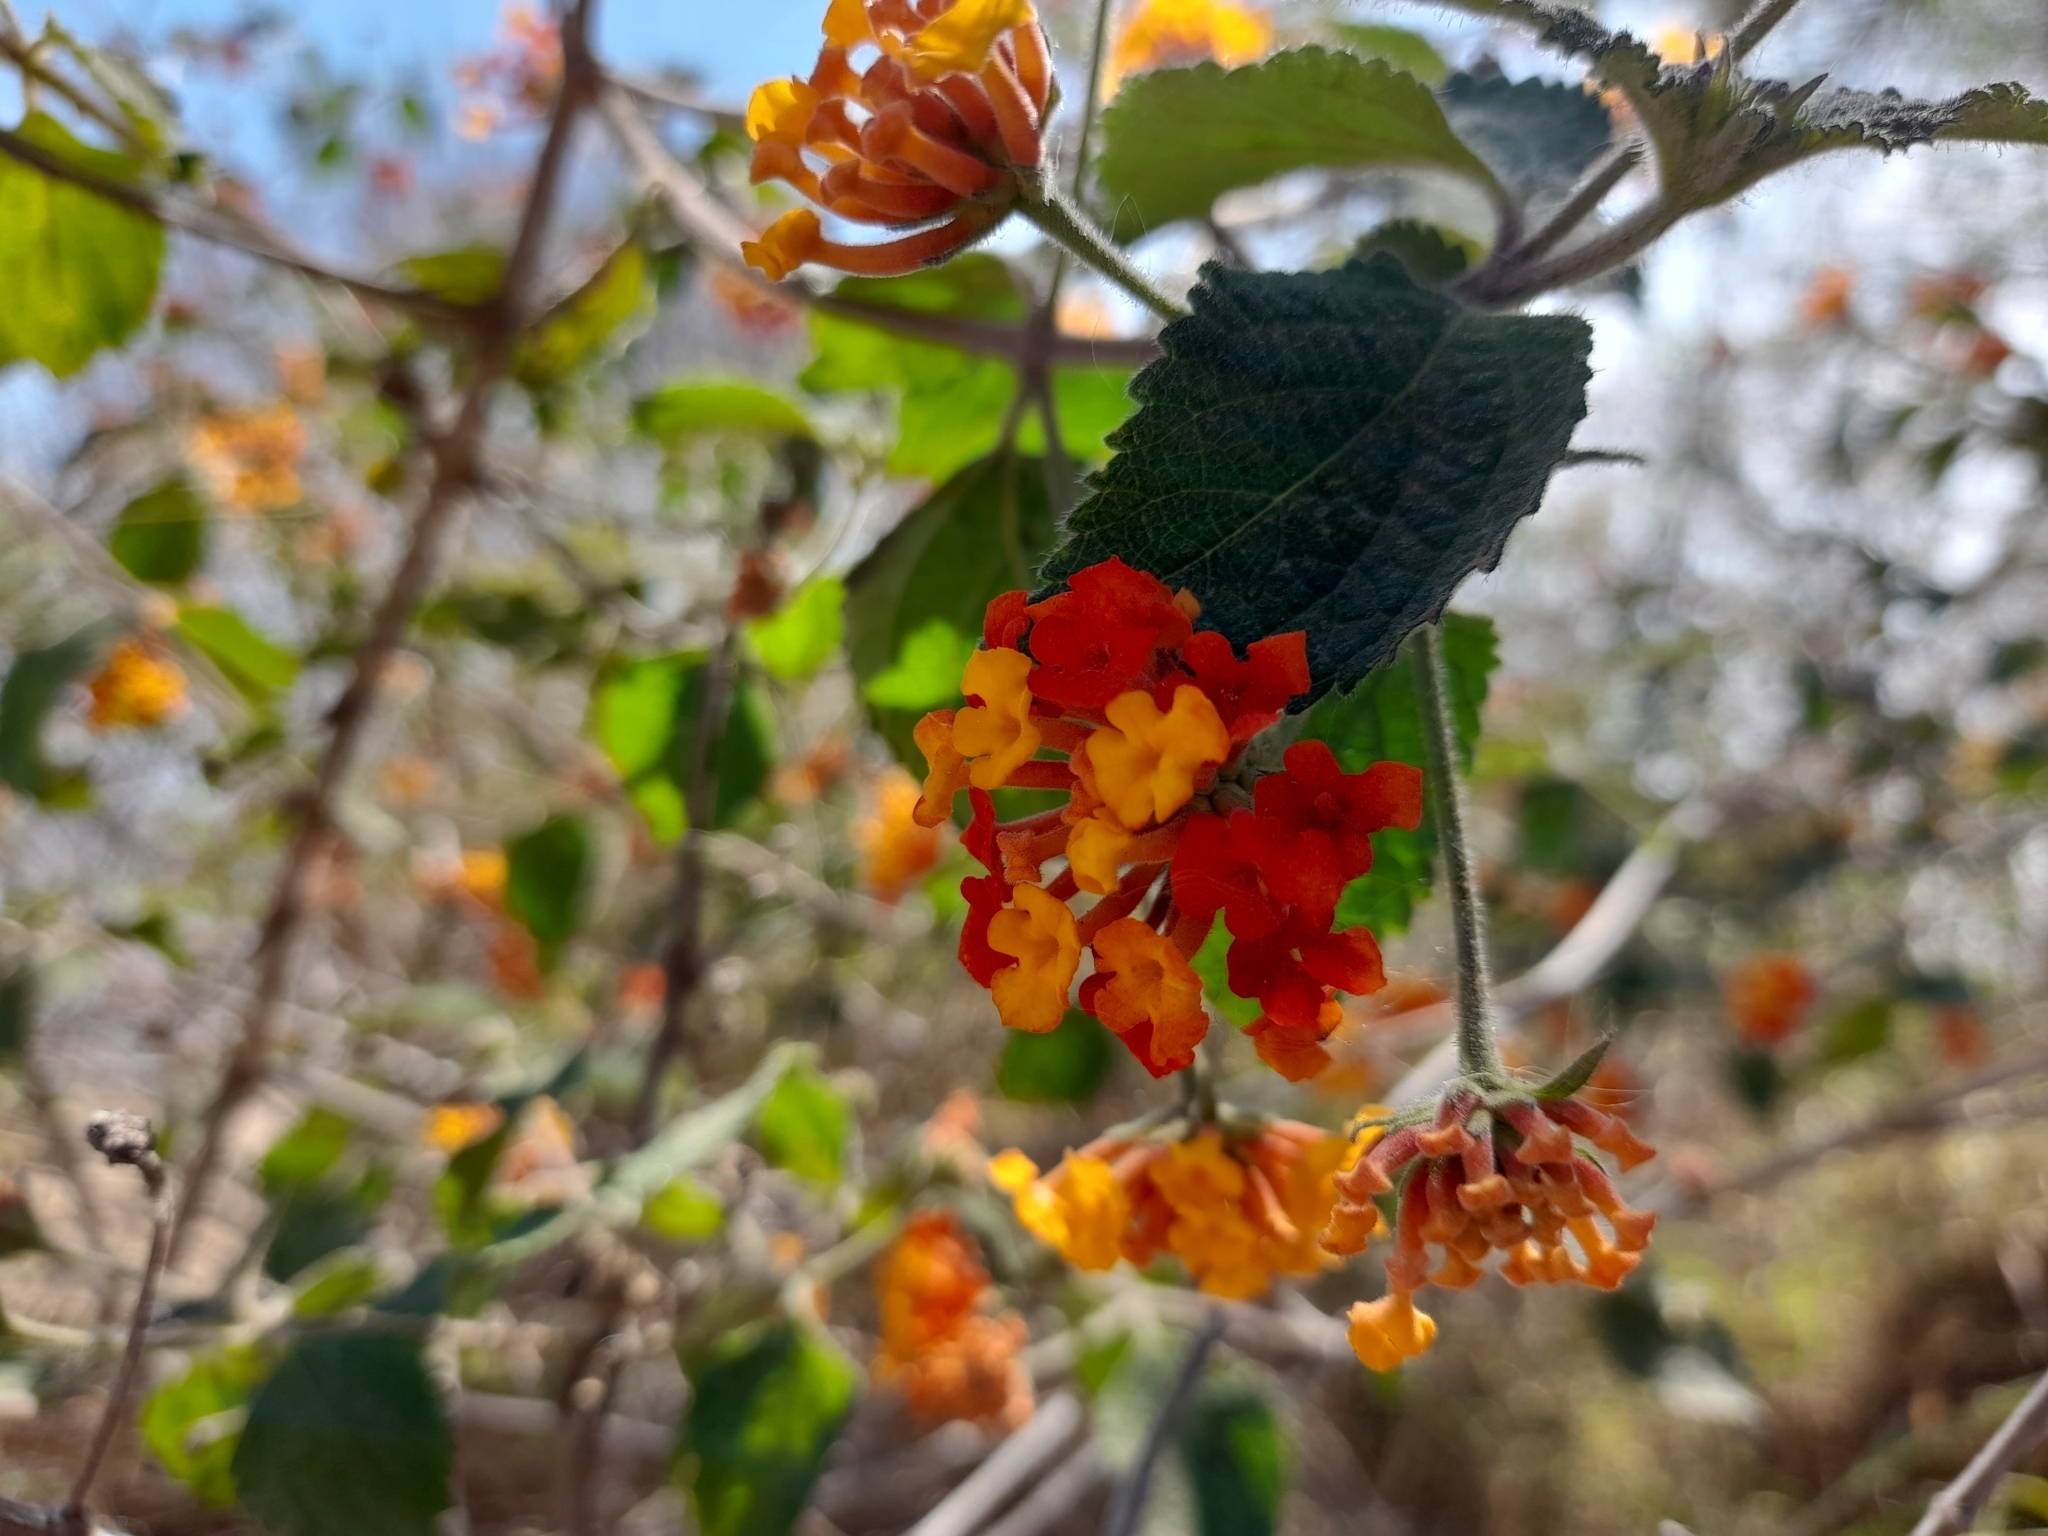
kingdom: Plantae
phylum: Tracheophyta
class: Magnoliopsida
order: Lamiales
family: Verbenaceae
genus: Lantana
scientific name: Lantana camara
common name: Lantana
